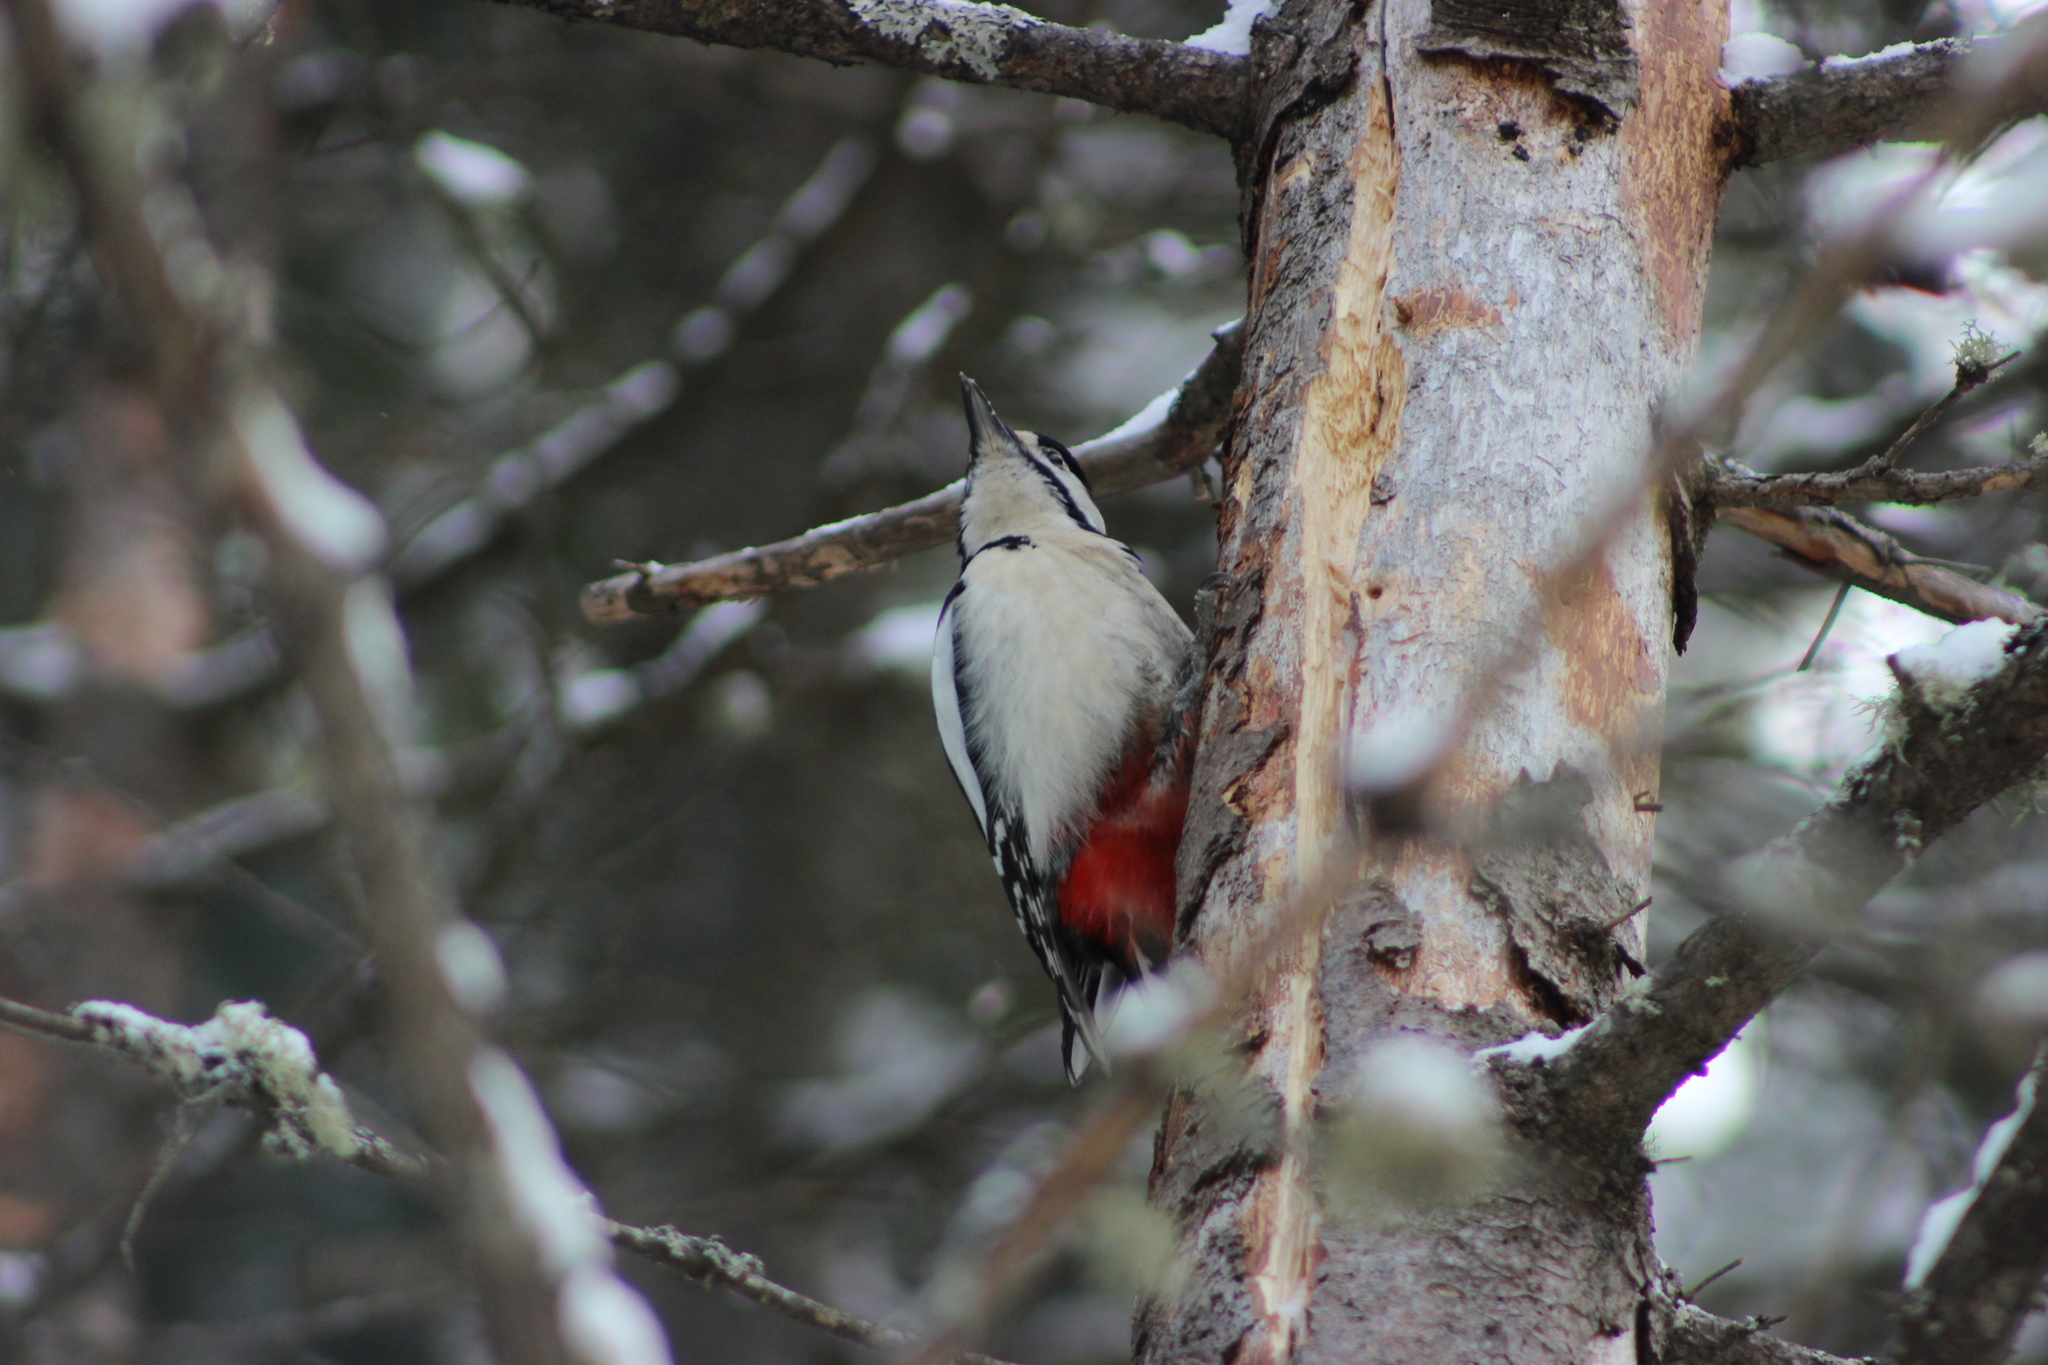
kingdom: Animalia
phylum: Chordata
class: Aves
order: Piciformes
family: Picidae
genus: Dendrocopos
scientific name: Dendrocopos major
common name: Great spotted woodpecker
